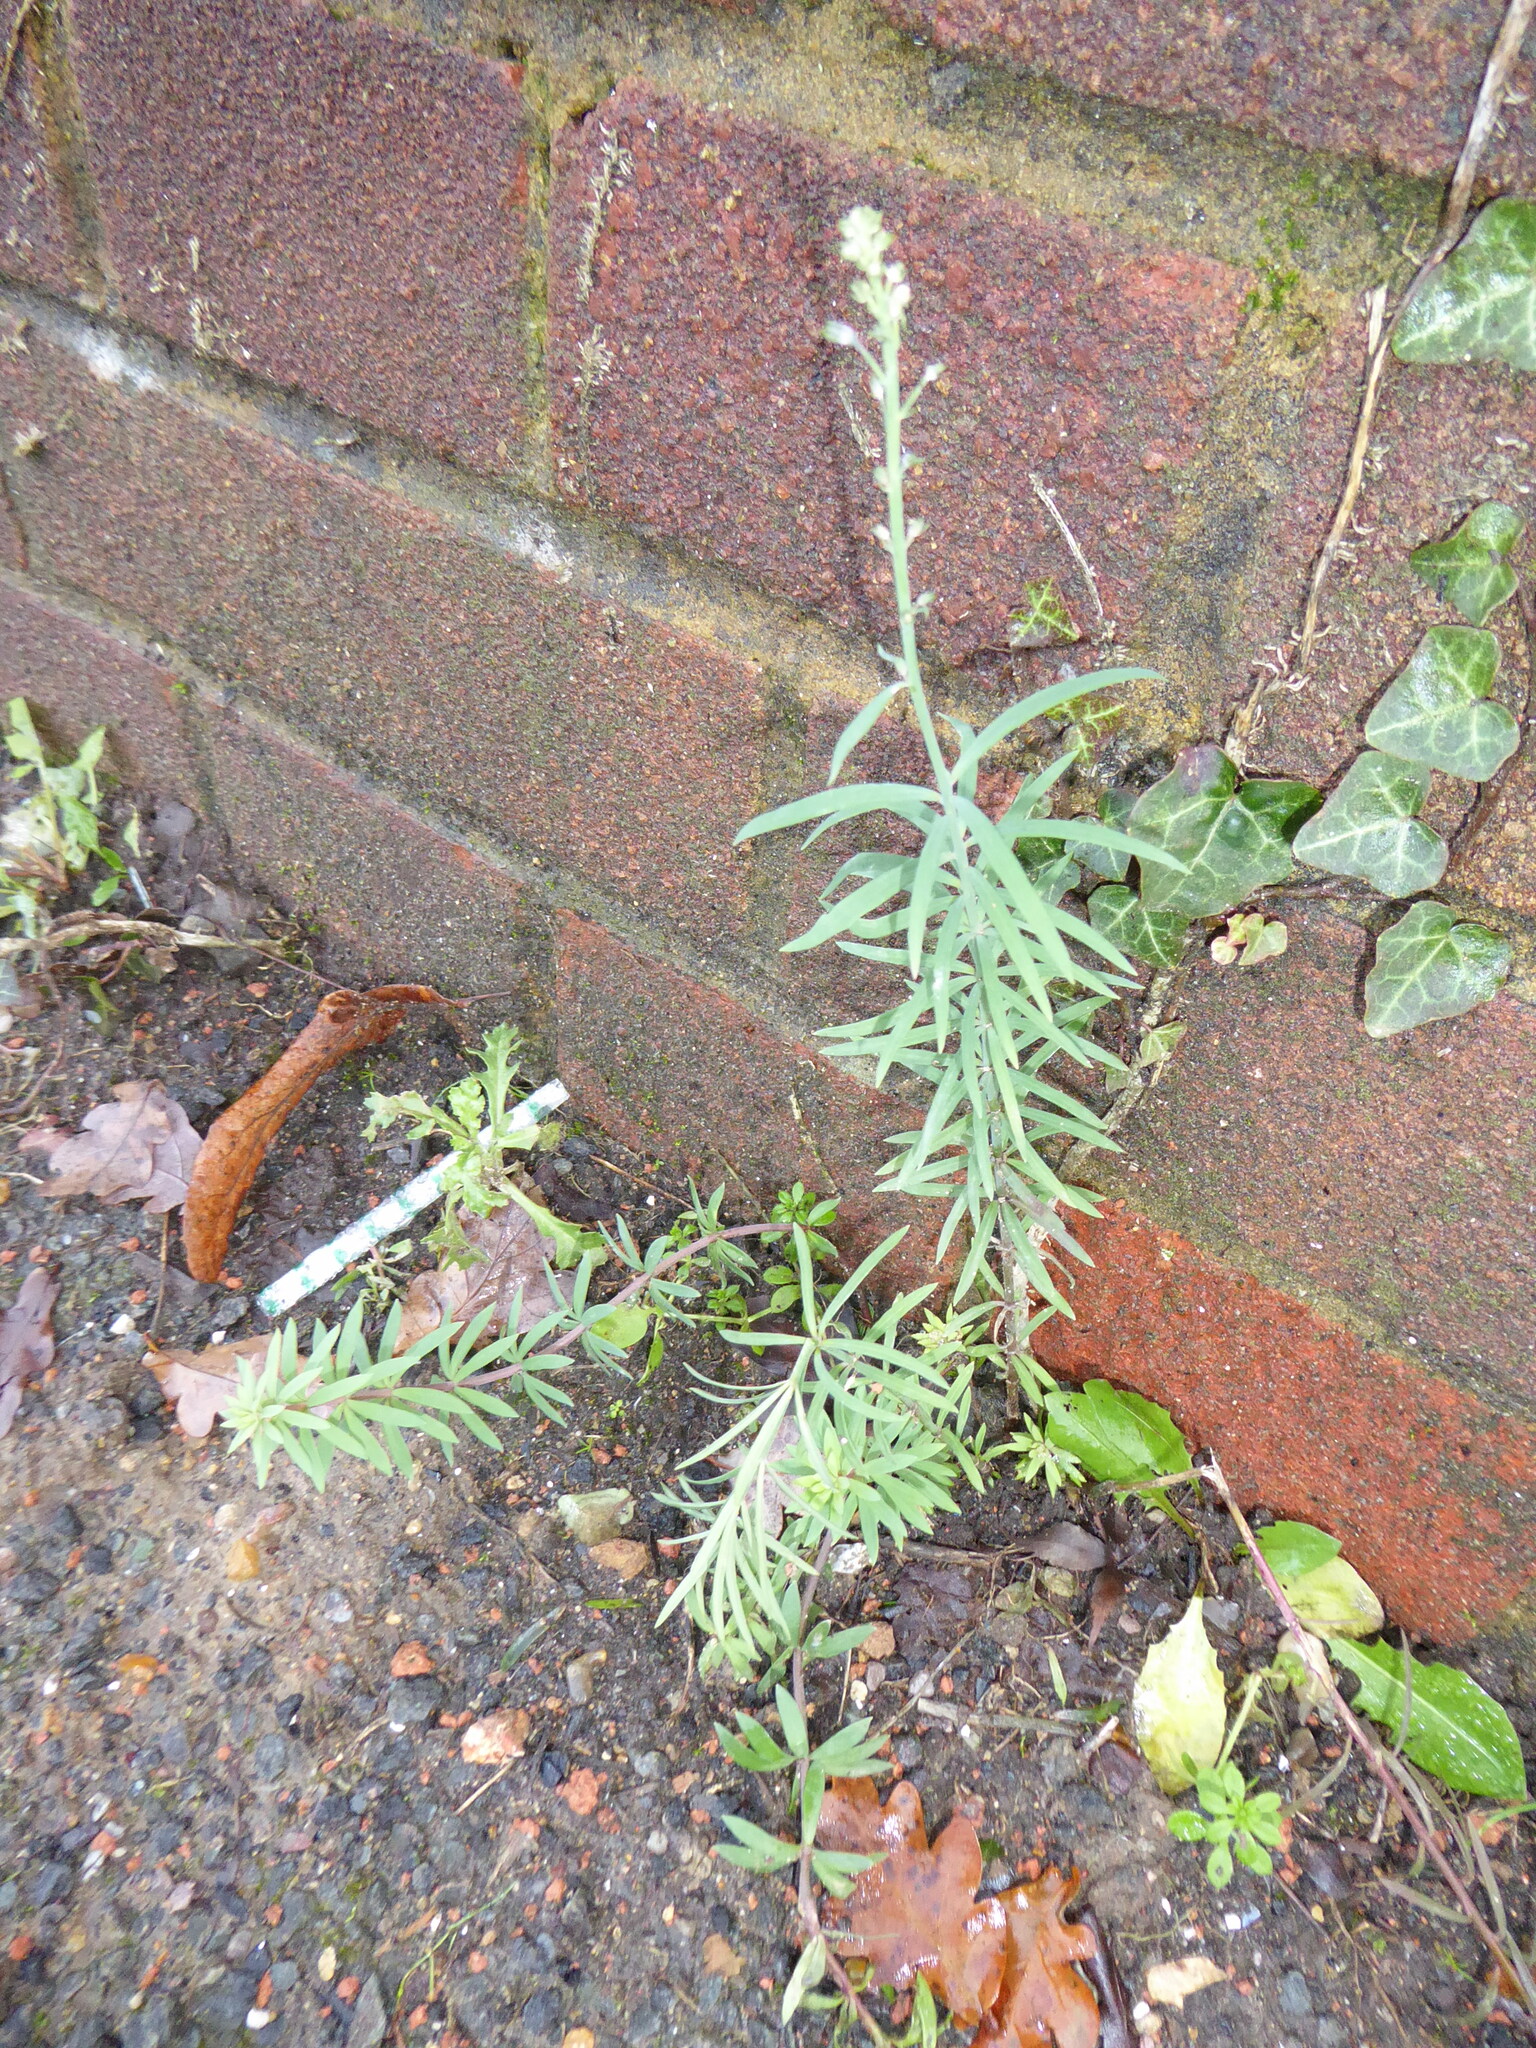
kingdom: Plantae
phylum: Tracheophyta
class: Magnoliopsida
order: Lamiales
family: Plantaginaceae
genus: Linaria
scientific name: Linaria purpurea
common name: Purple toadflax
